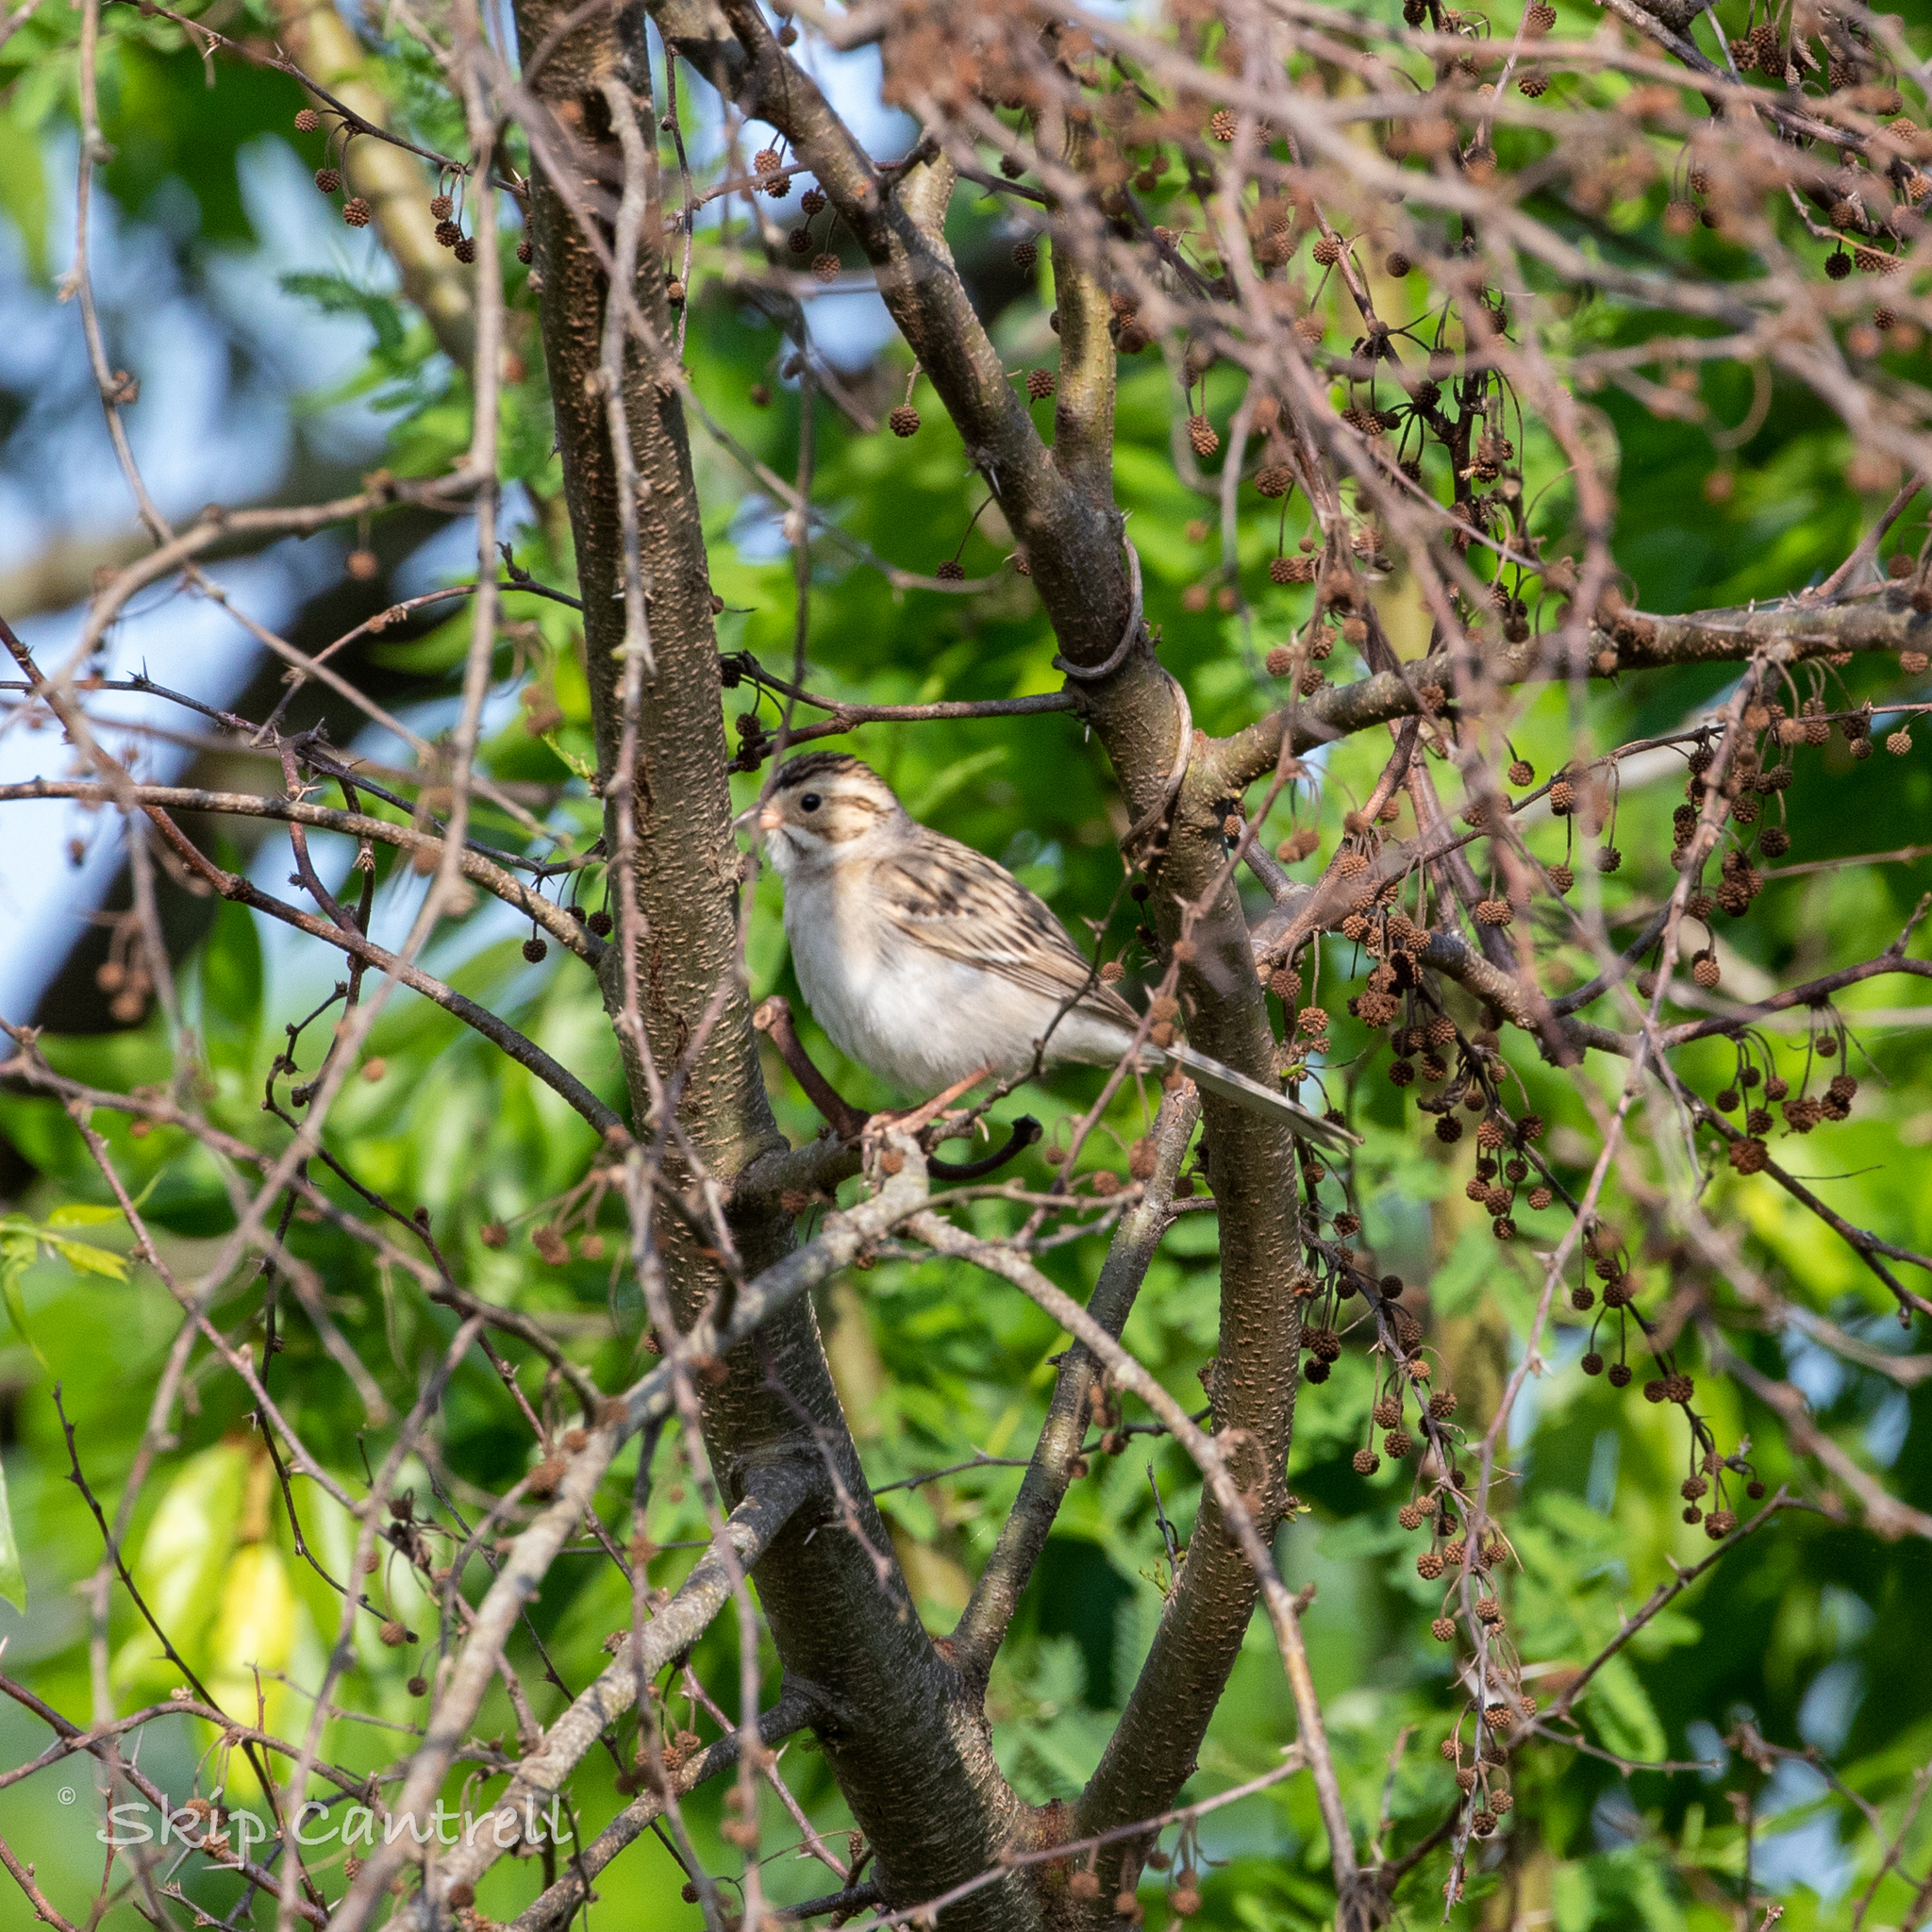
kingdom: Animalia
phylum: Chordata
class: Aves
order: Passeriformes
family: Passerellidae
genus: Spizella
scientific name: Spizella pallida
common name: Clay-colored sparrow
